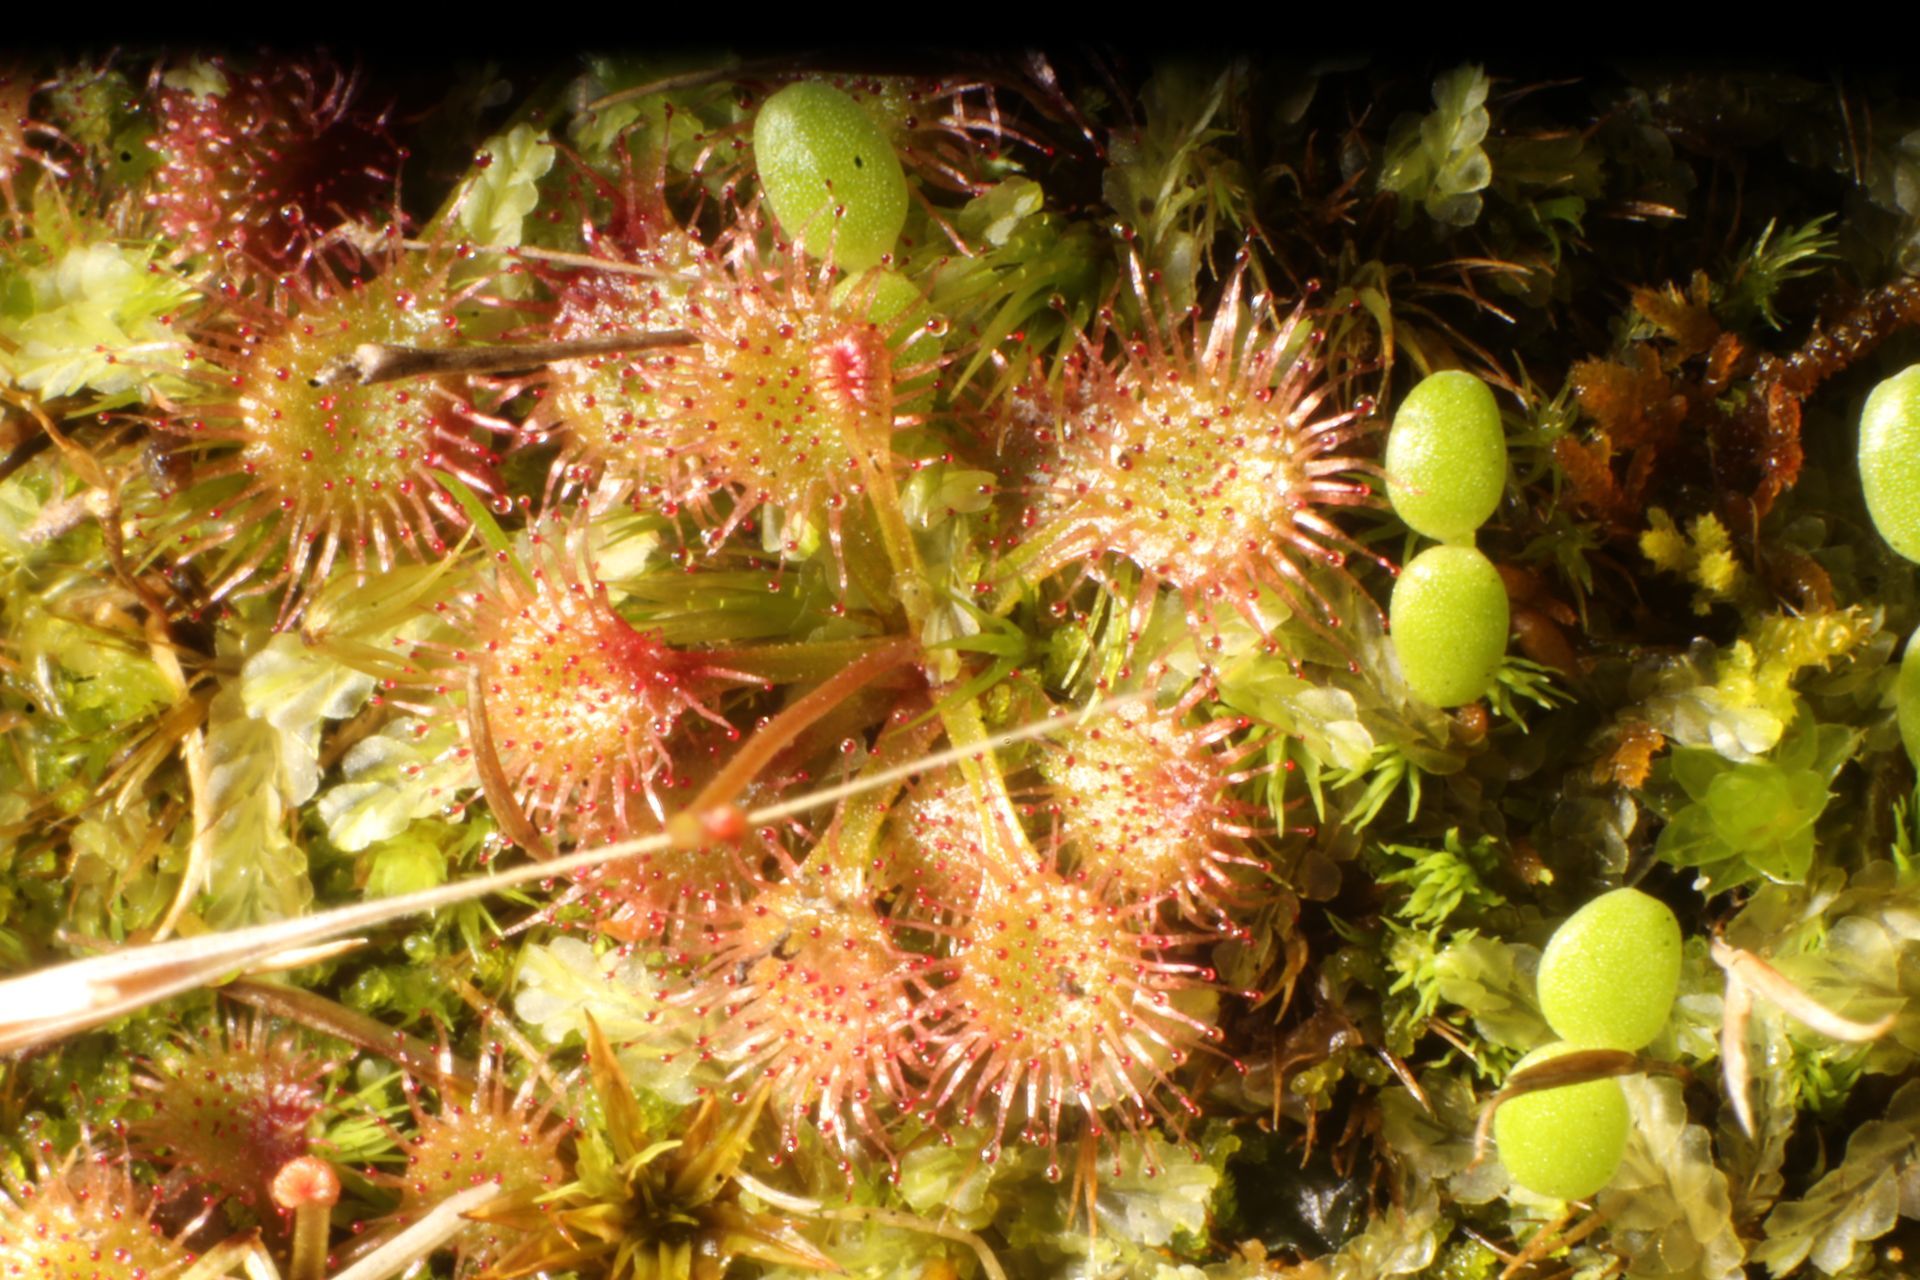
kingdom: Plantae
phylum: Tracheophyta
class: Magnoliopsida
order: Caryophyllales
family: Droseraceae
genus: Drosera
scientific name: Drosera modesta
